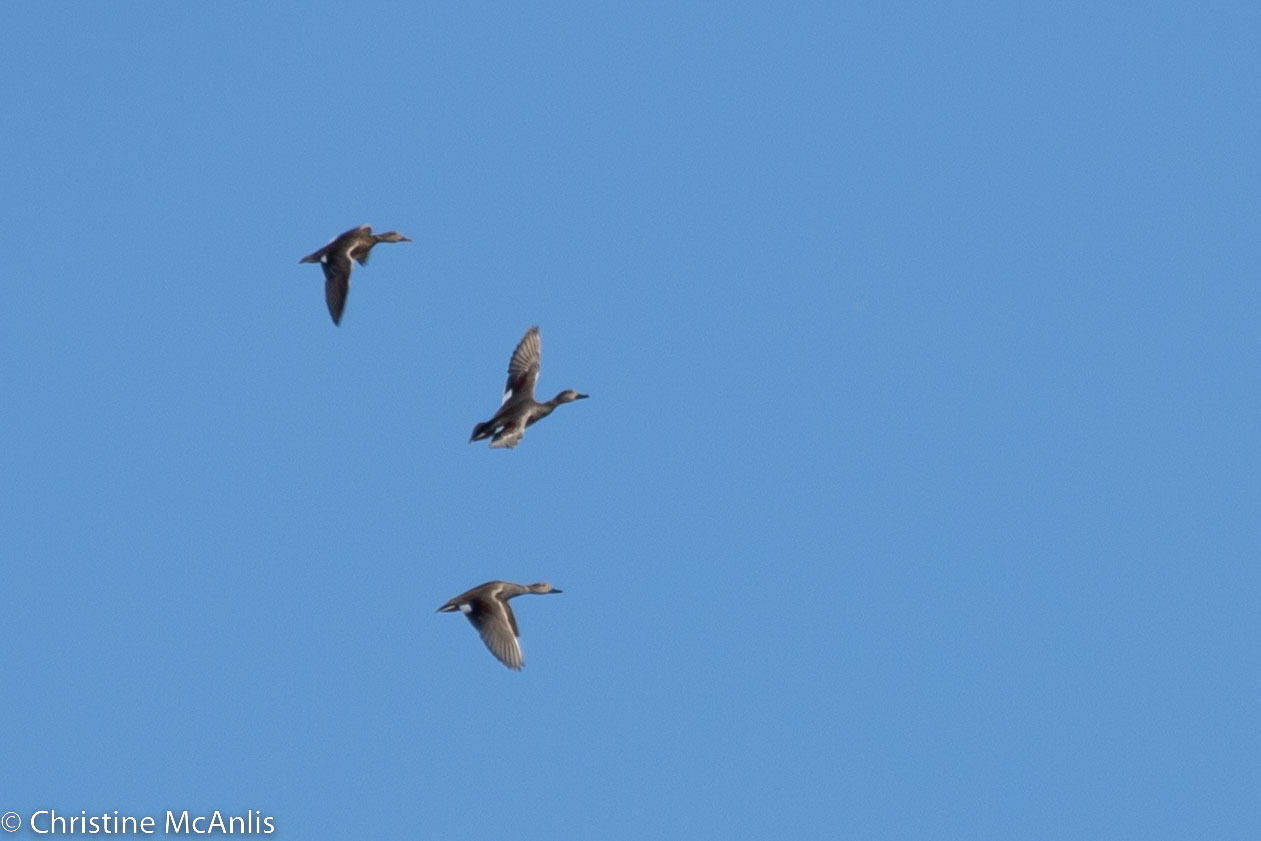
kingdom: Animalia
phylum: Chordata
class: Aves
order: Anseriformes
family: Anatidae
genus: Mareca
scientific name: Mareca strepera
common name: Gadwall
